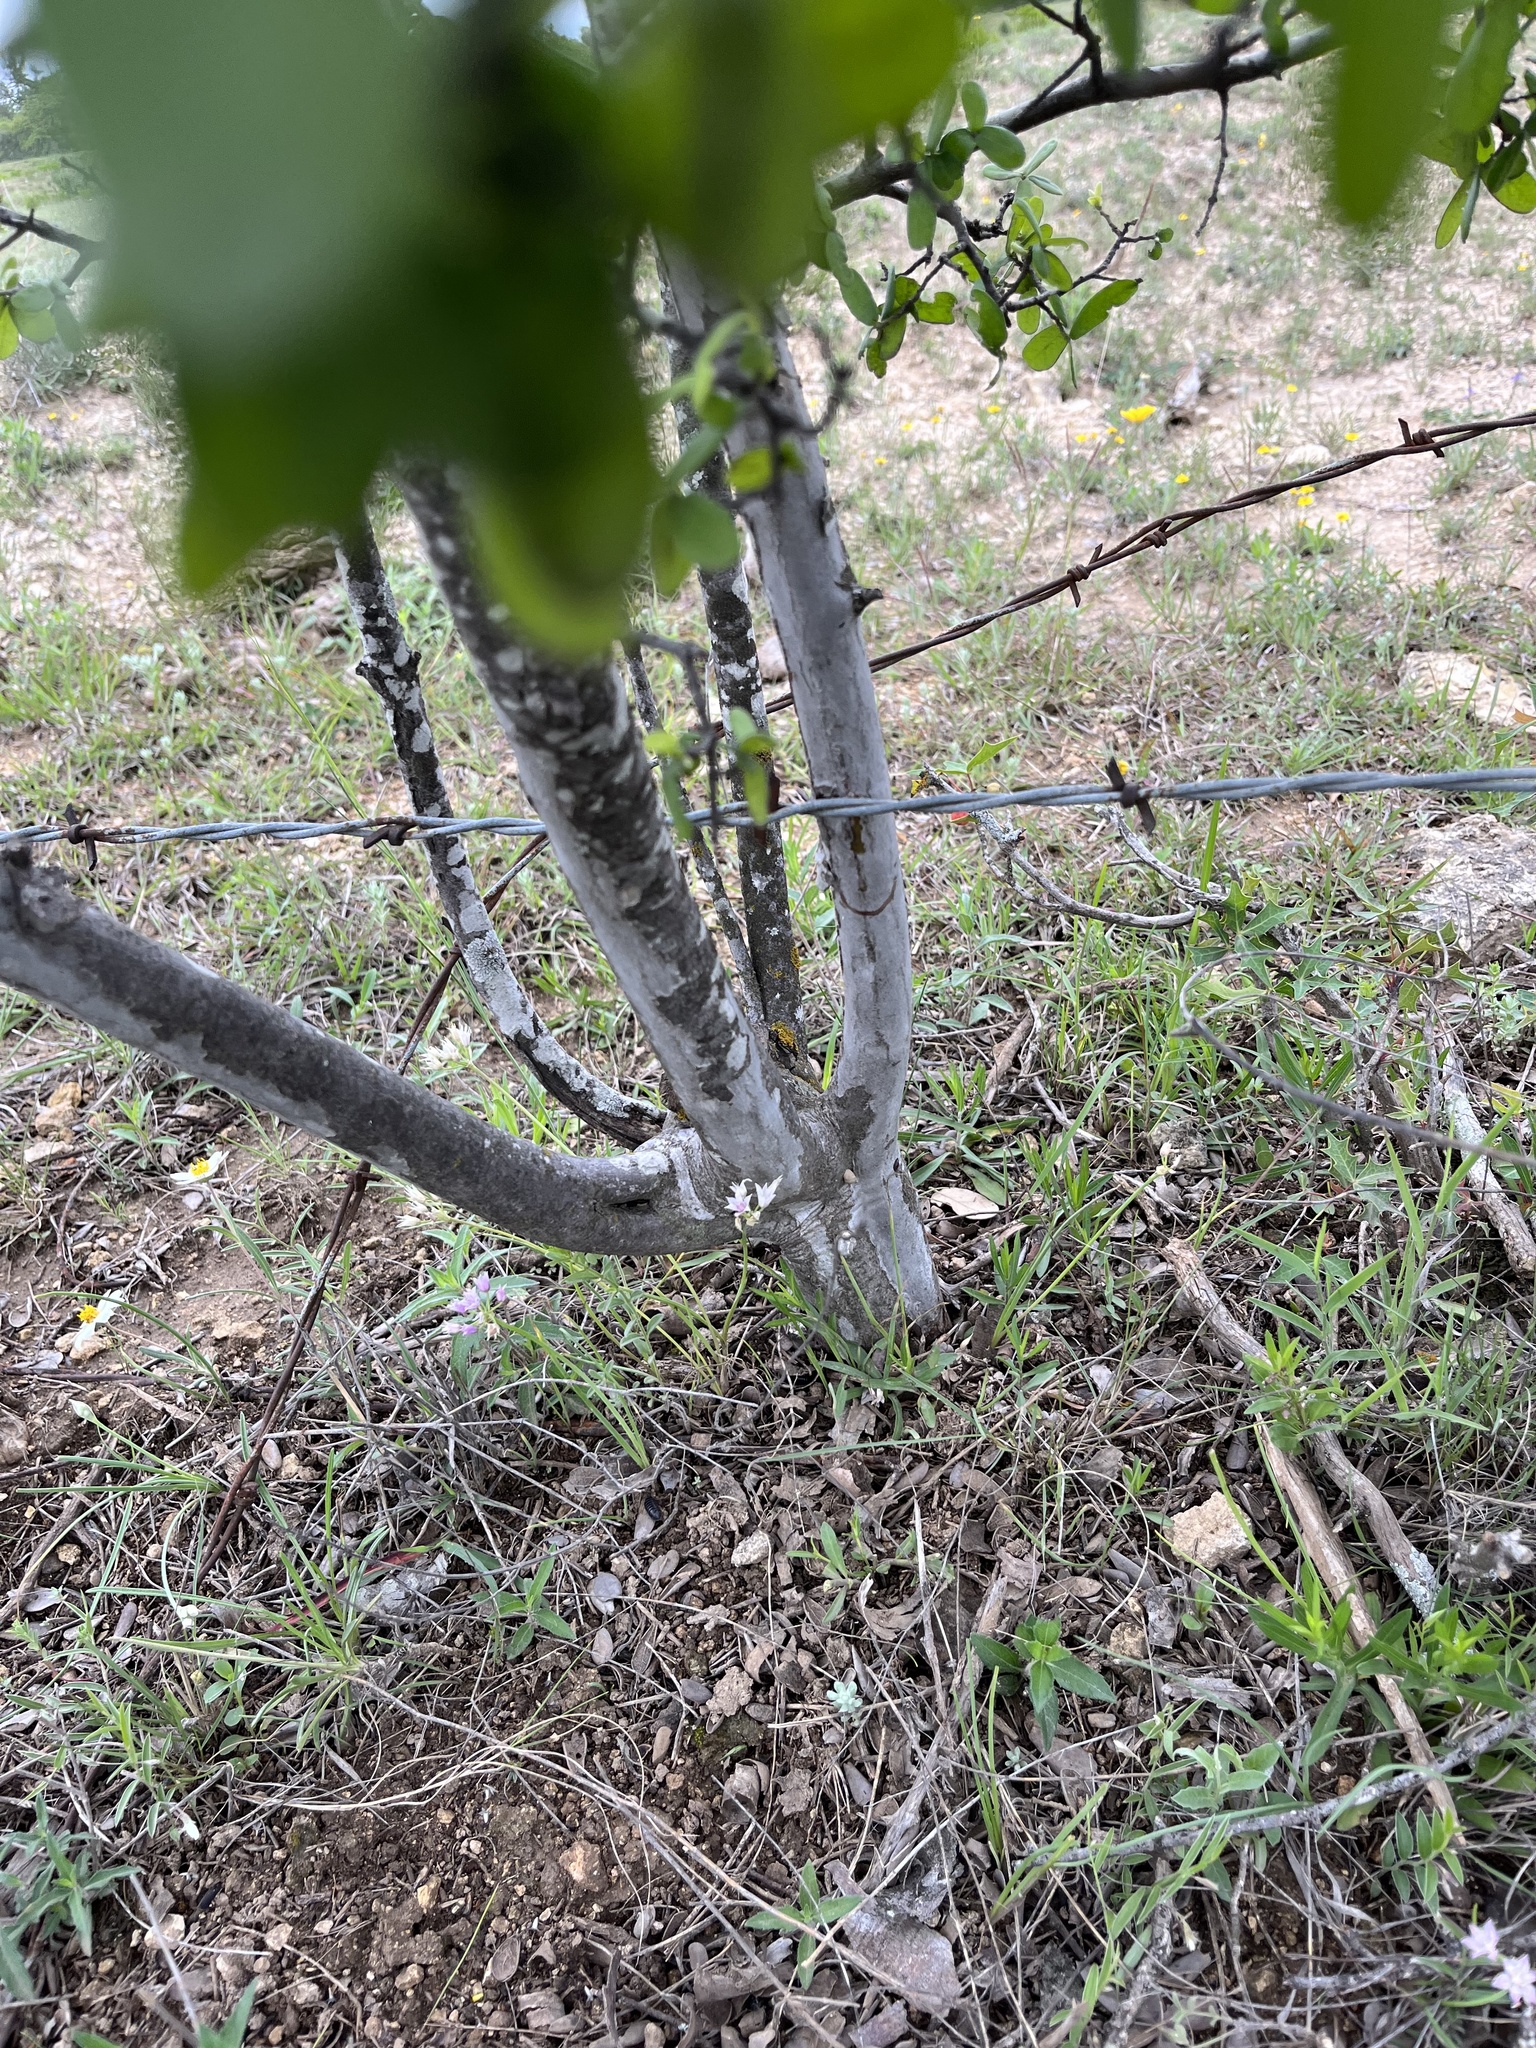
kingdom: Plantae
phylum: Tracheophyta
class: Magnoliopsida
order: Ericales
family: Ebenaceae
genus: Diospyros
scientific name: Diospyros texana
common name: Texas persimmon
